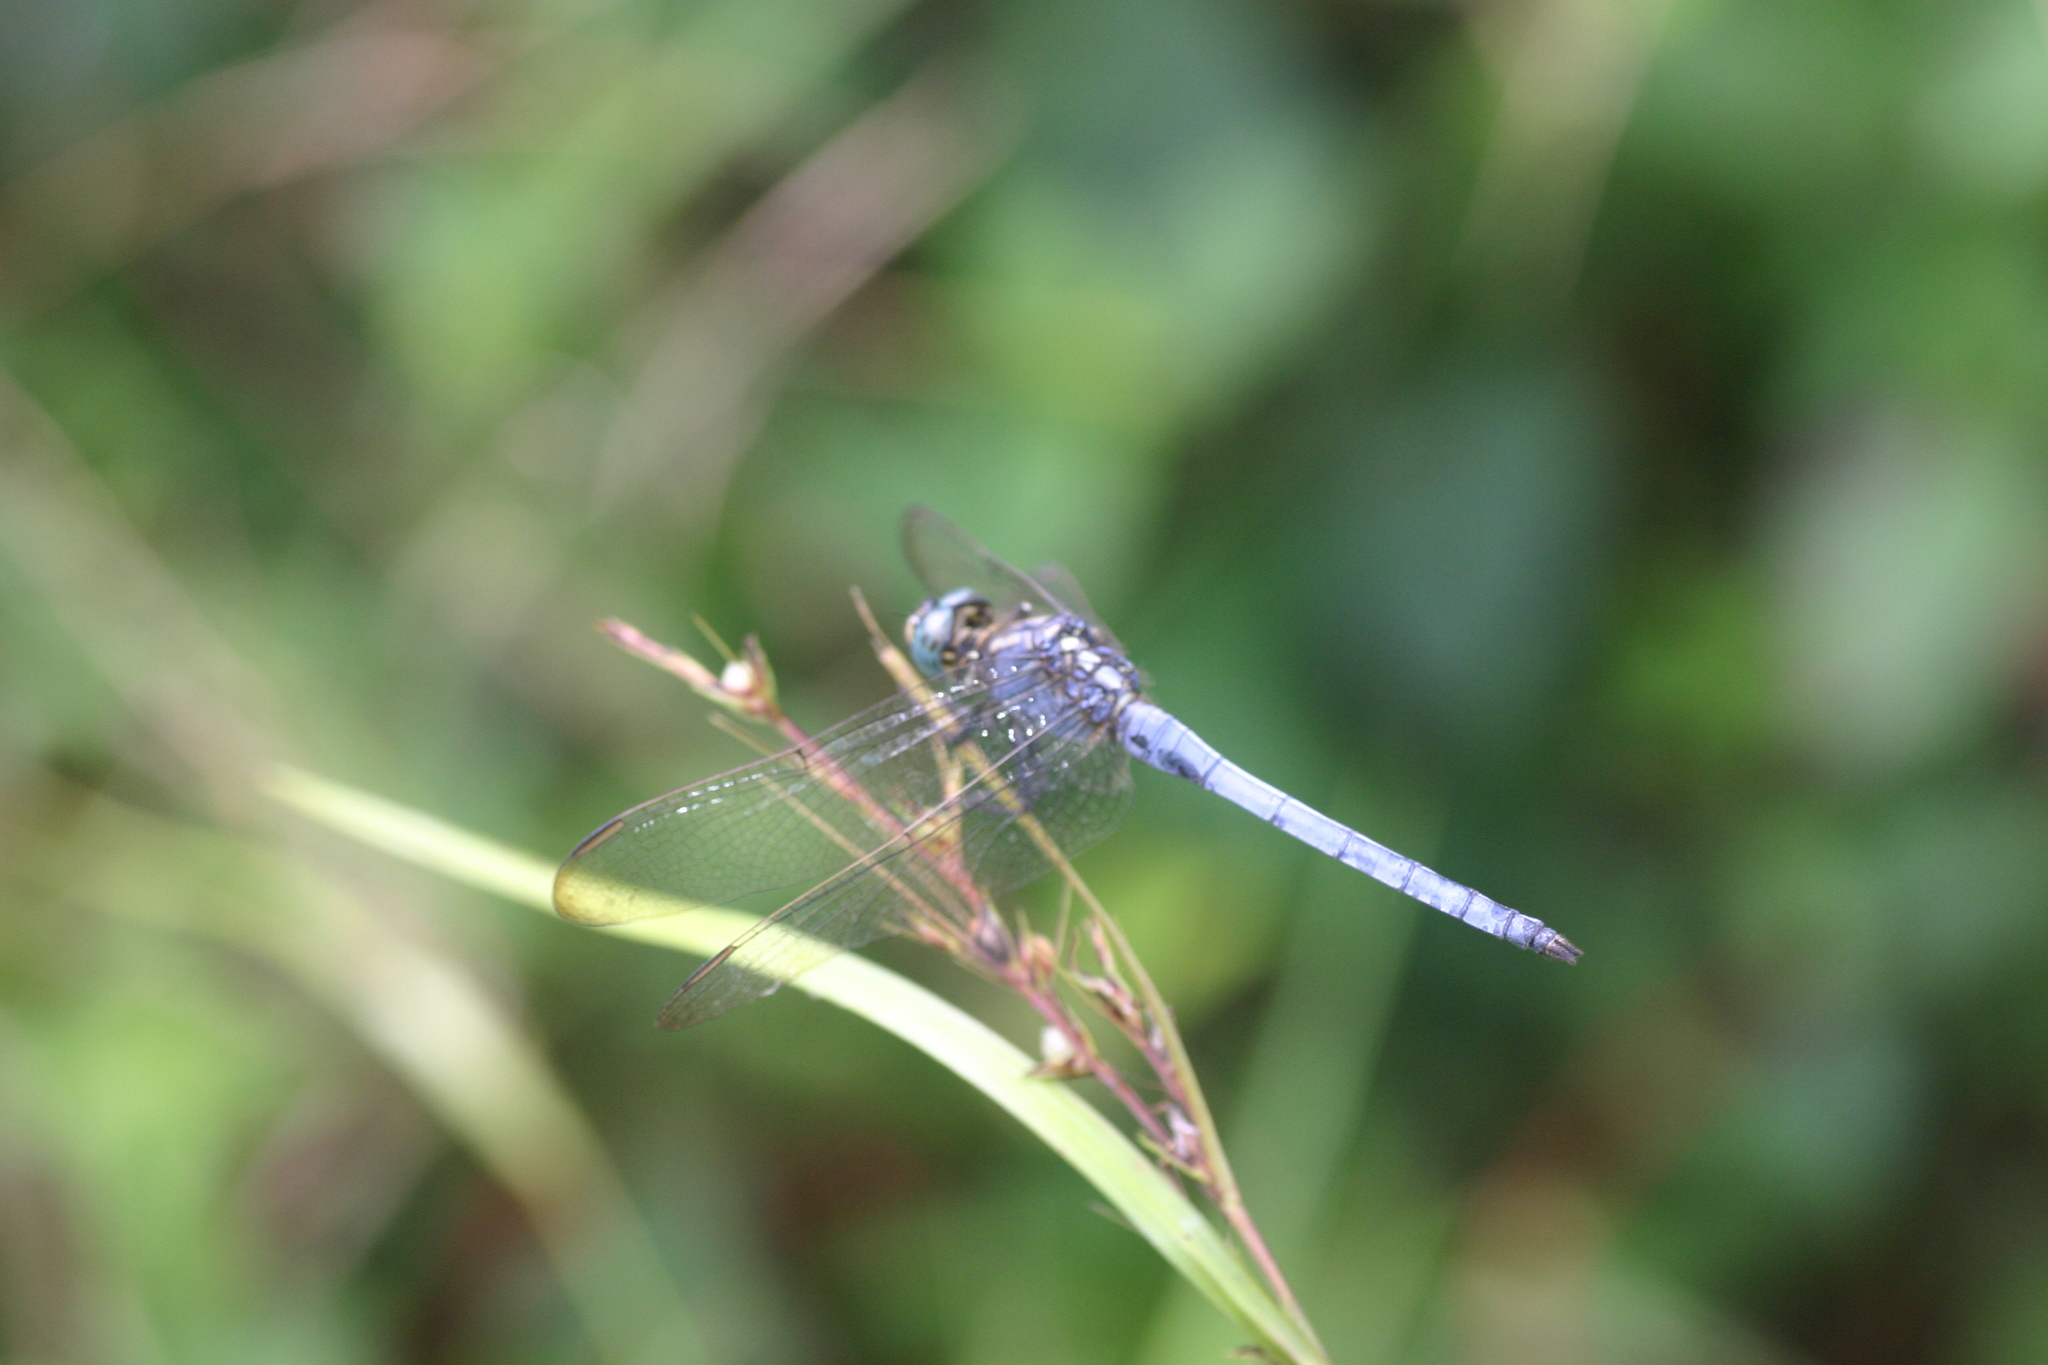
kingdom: Animalia
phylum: Arthropoda
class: Insecta
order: Odonata
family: Libellulidae
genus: Orthetrum
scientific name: Orthetrum luzonicum
